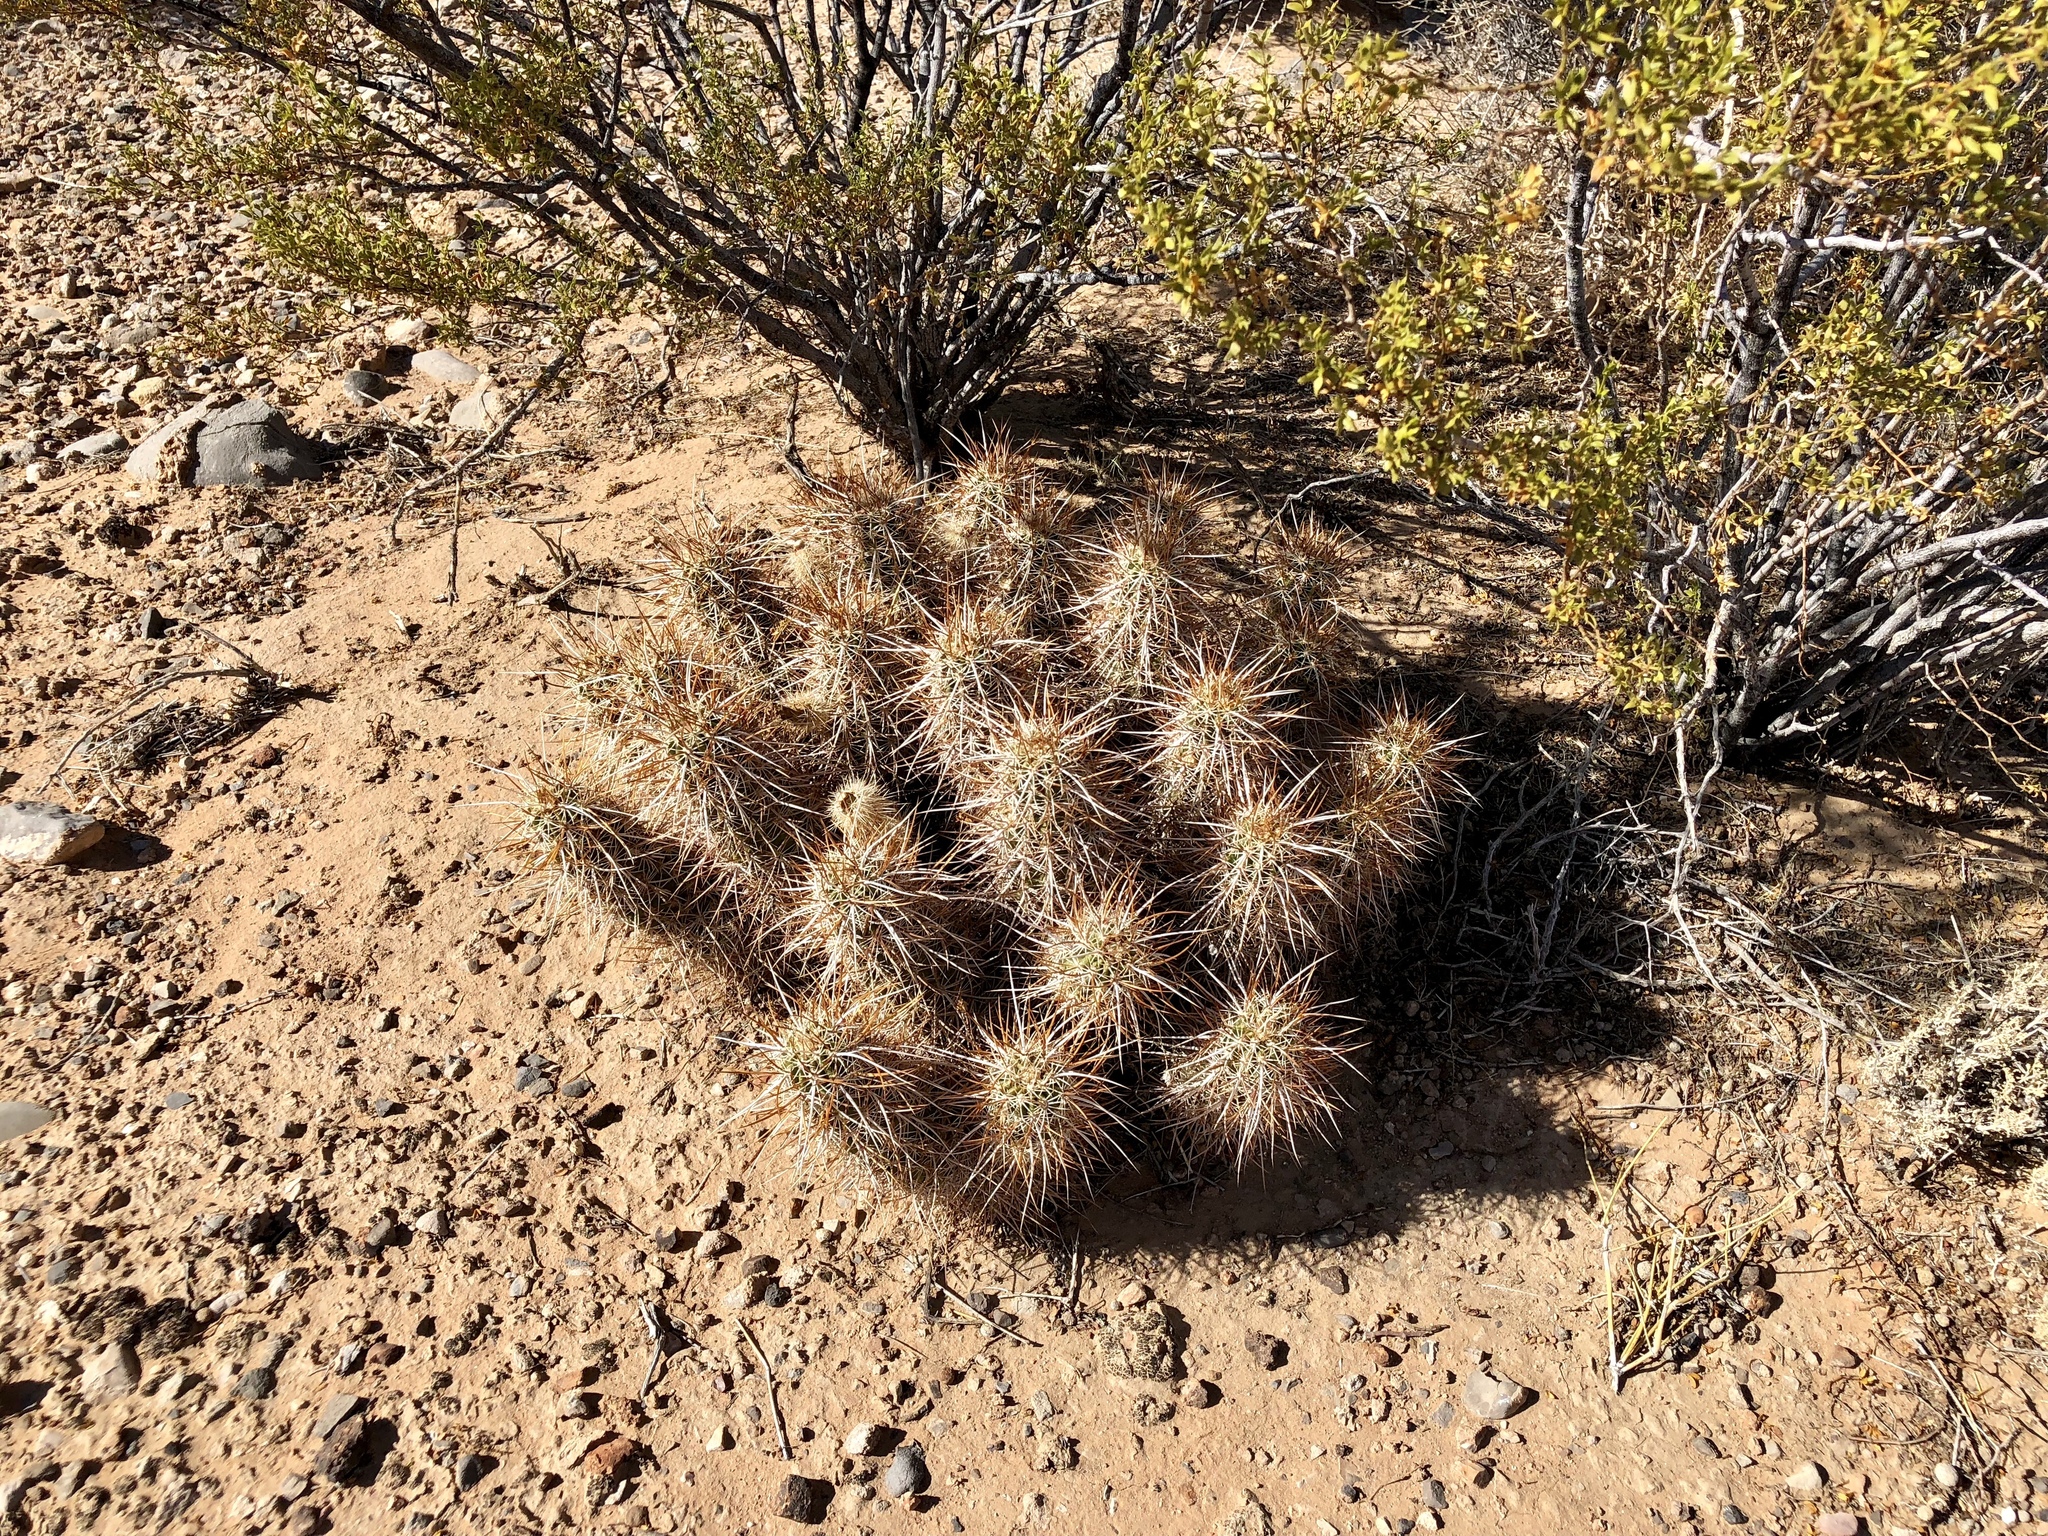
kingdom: Plantae
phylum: Tracheophyta
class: Magnoliopsida
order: Caryophyllales
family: Cactaceae
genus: Echinocereus
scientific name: Echinocereus engelmannii
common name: Engelmann's hedgehog cactus
